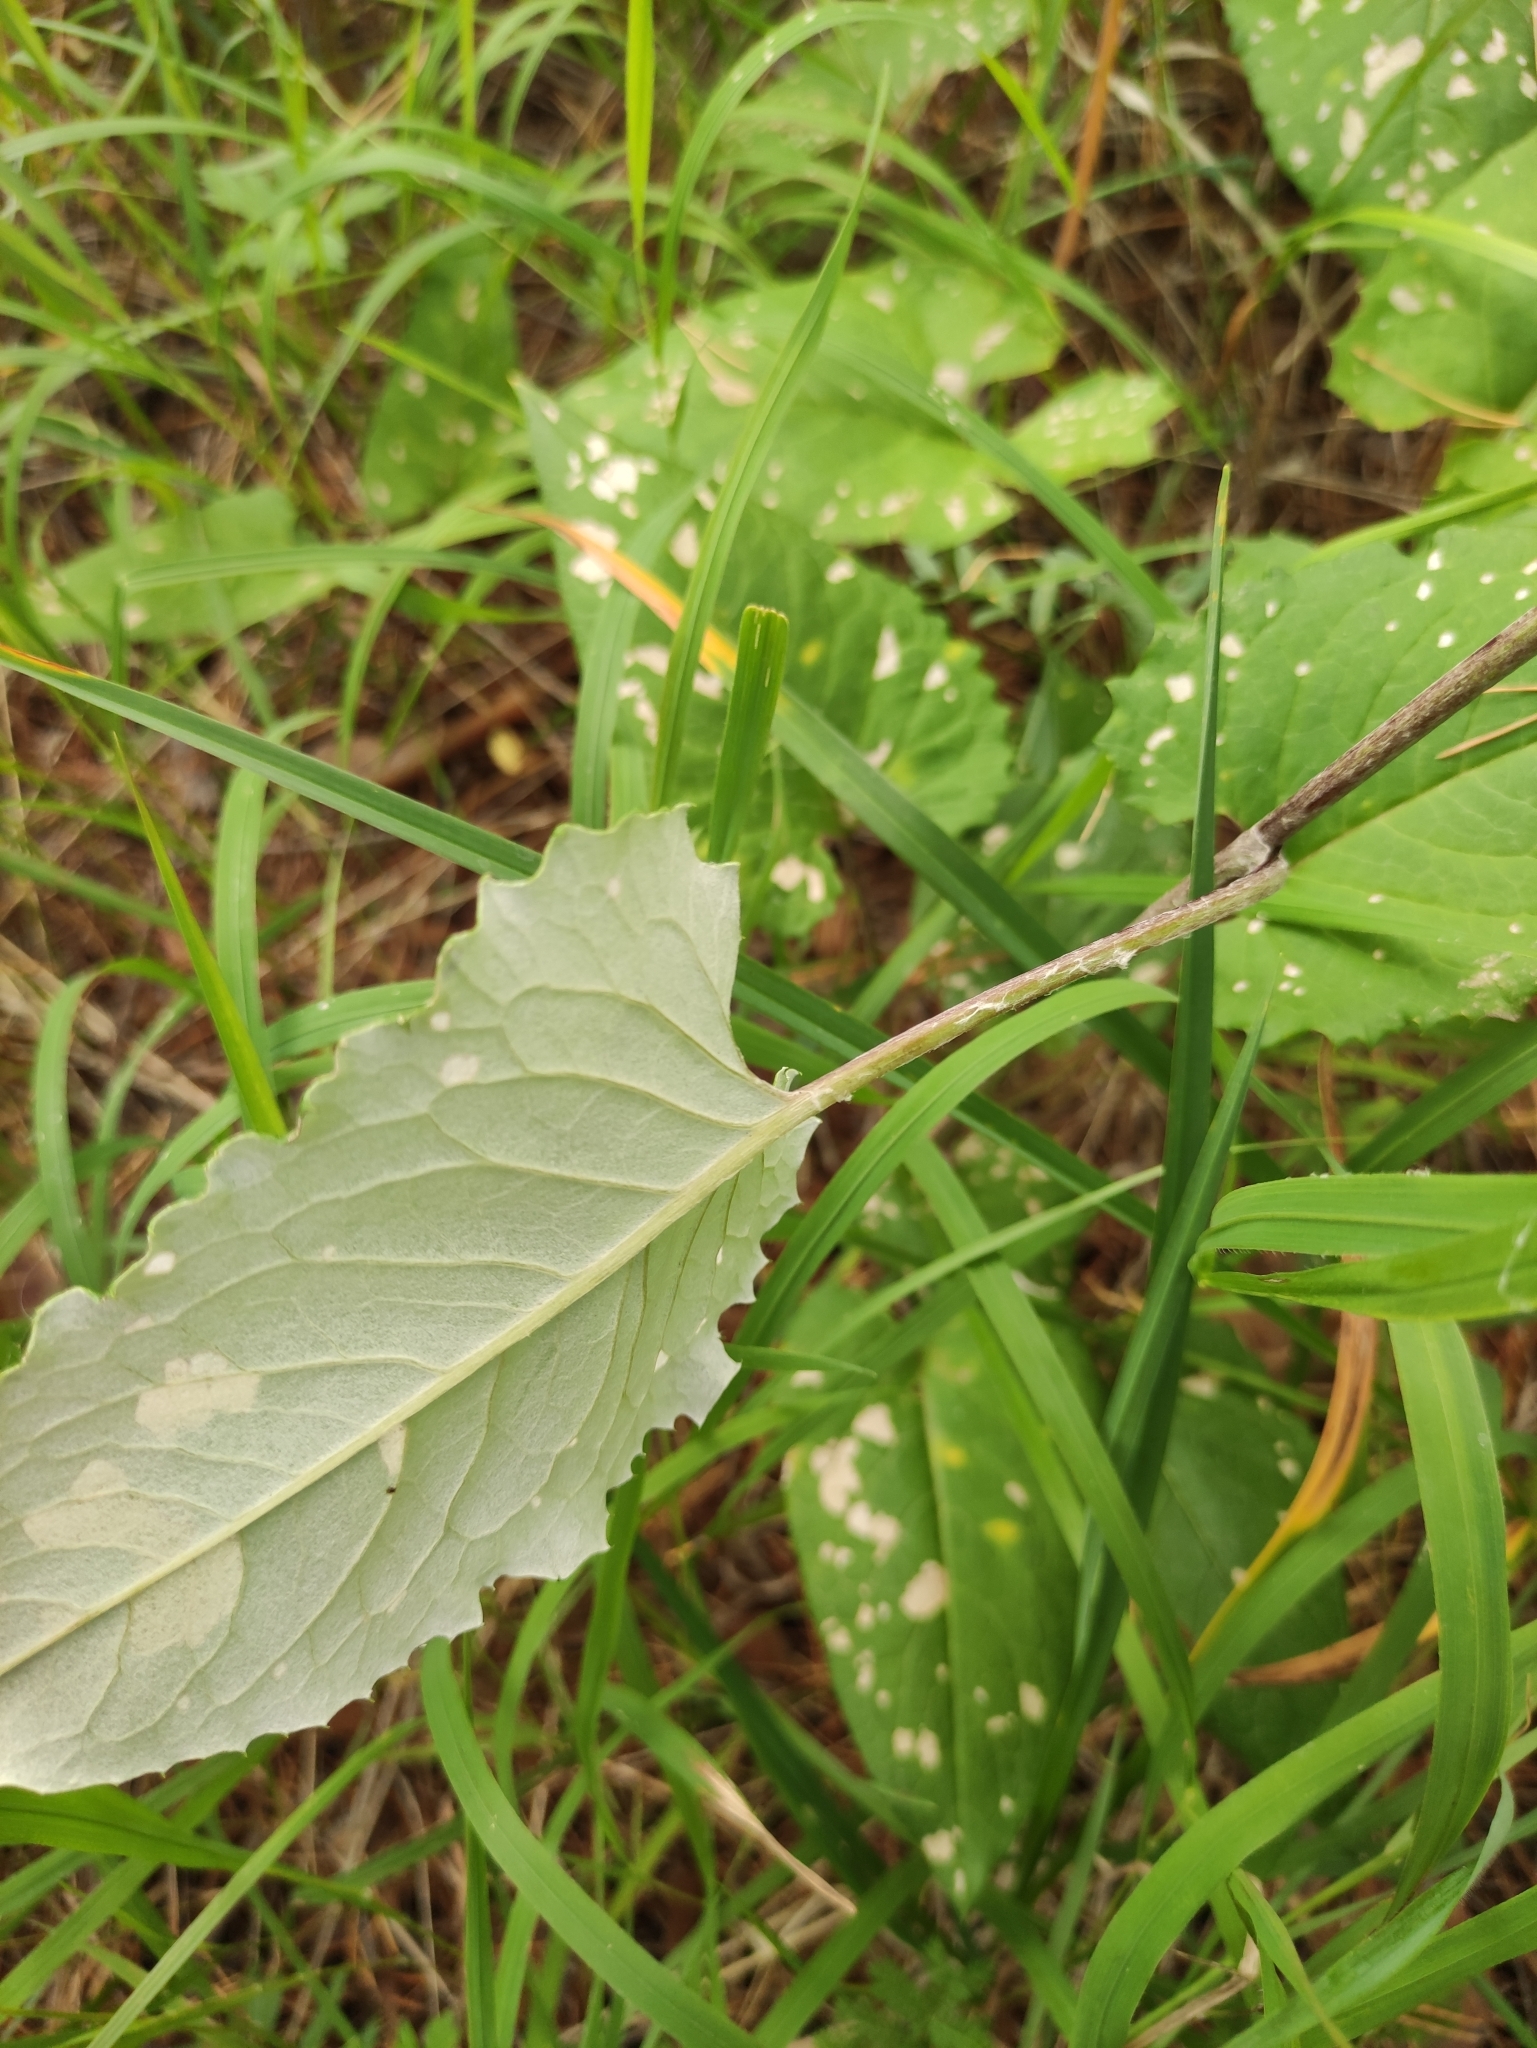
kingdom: Plantae
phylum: Tracheophyta
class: Magnoliopsida
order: Asterales
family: Asteraceae
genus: Saussurea
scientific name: Saussurea controversa
